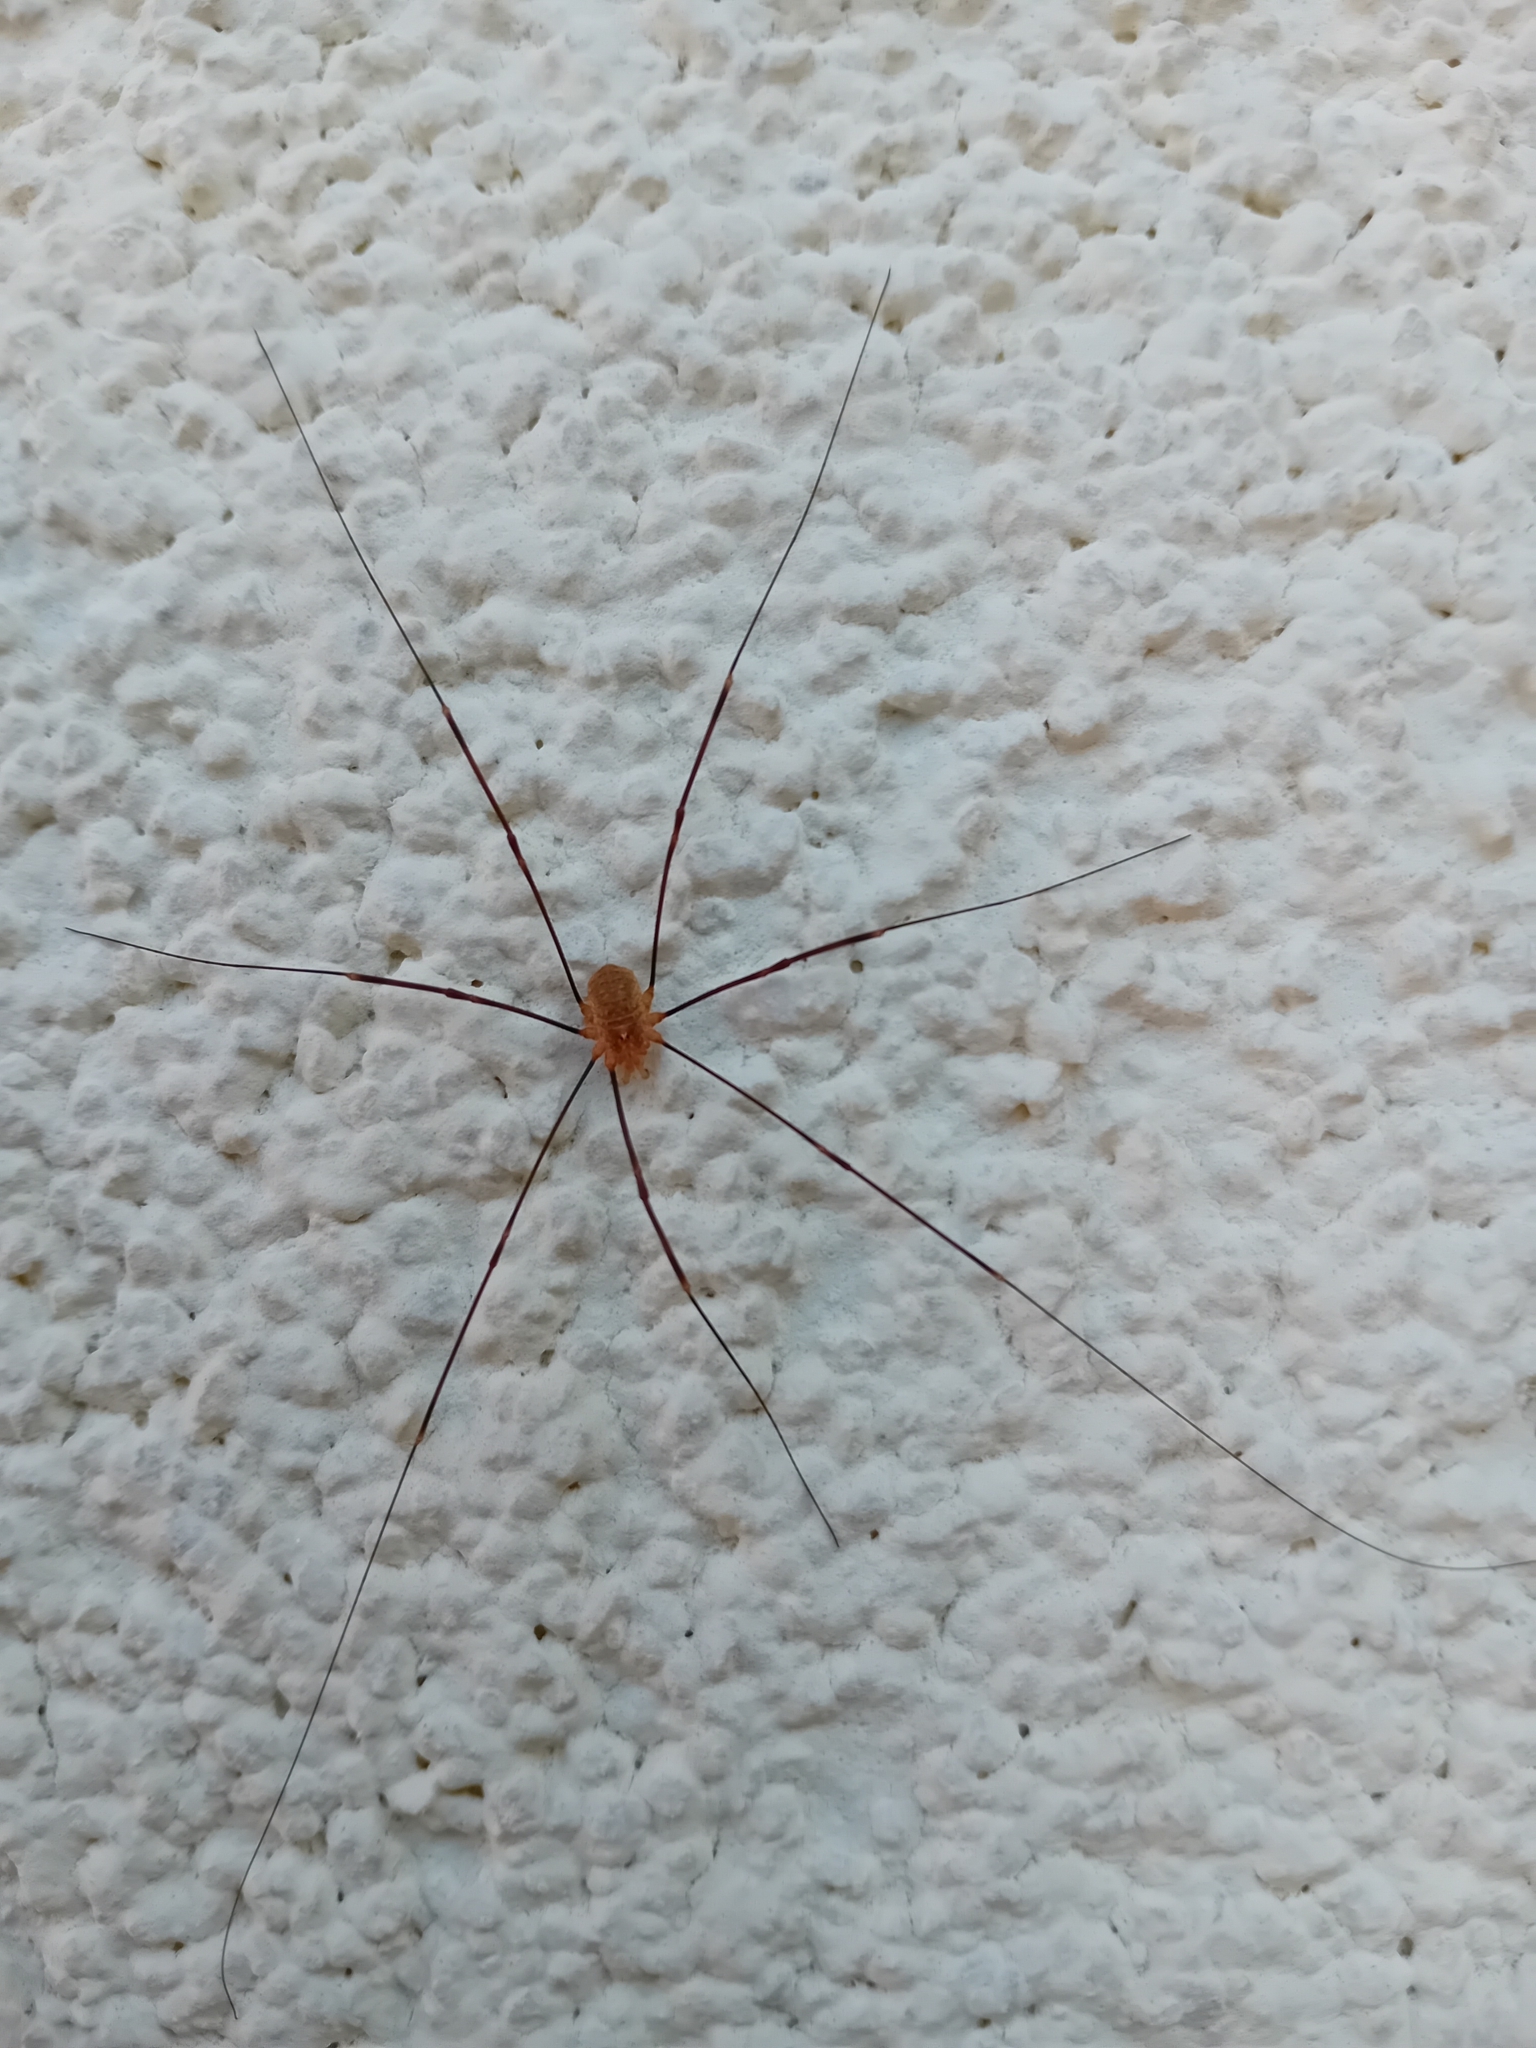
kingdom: Animalia
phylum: Arthropoda
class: Arachnida
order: Opiliones
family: Phalangiidae
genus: Opilio
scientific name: Opilio canestrinii
